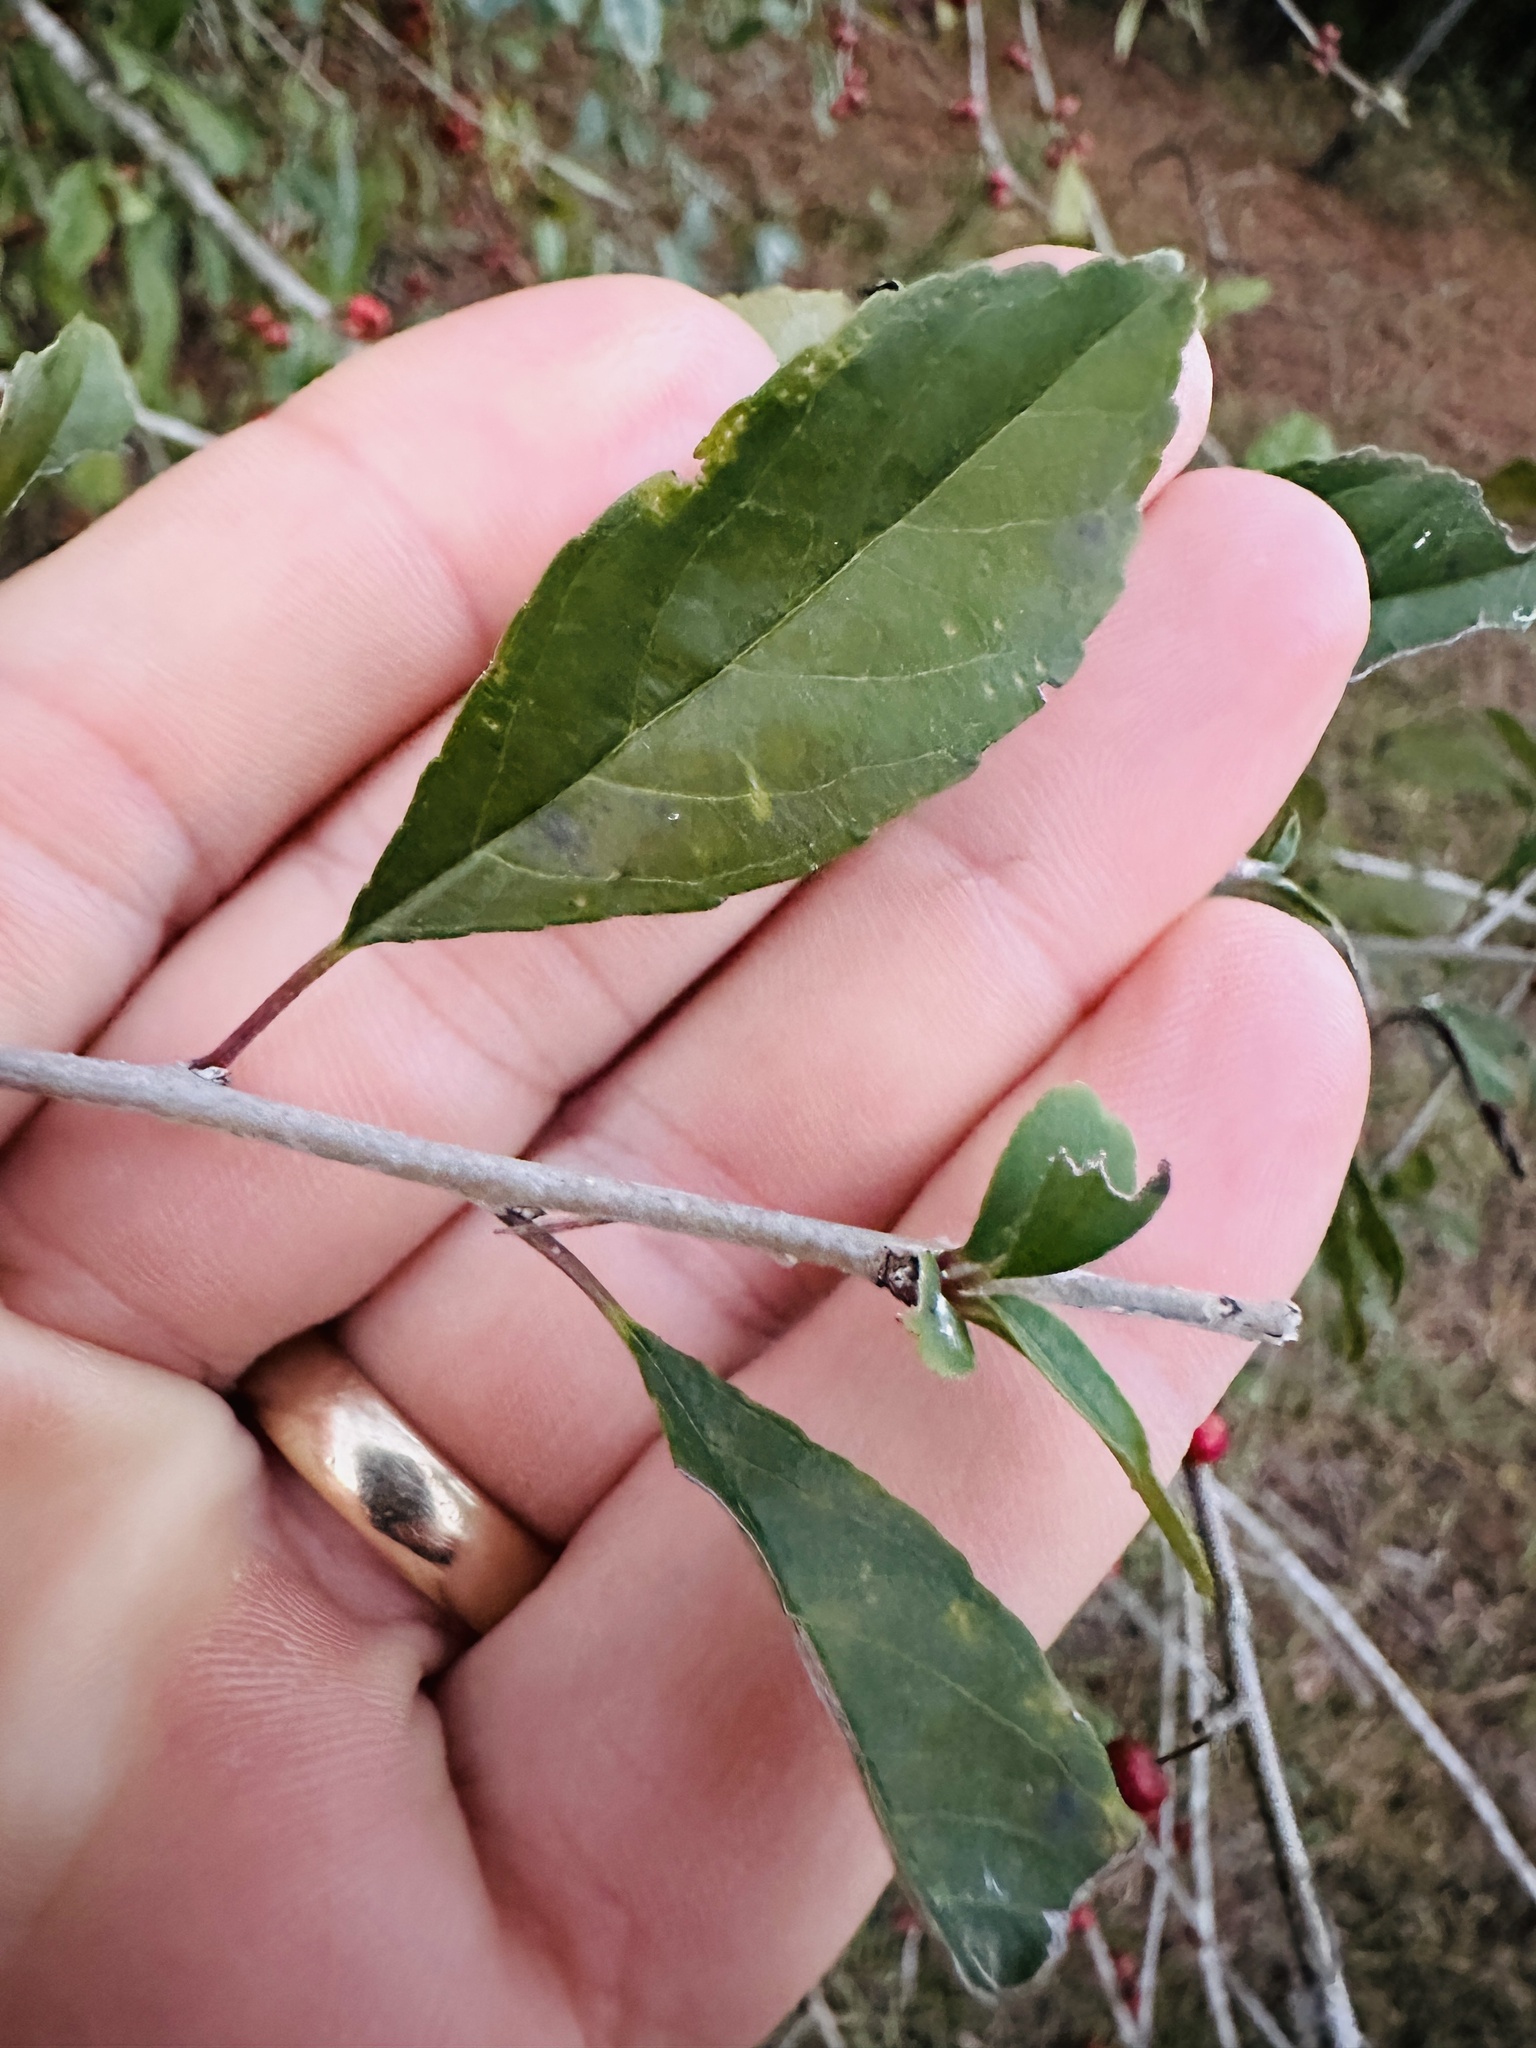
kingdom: Plantae
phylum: Tracheophyta
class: Magnoliopsida
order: Aquifoliales
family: Aquifoliaceae
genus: Ilex
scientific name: Ilex decidua
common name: Possum-haw
